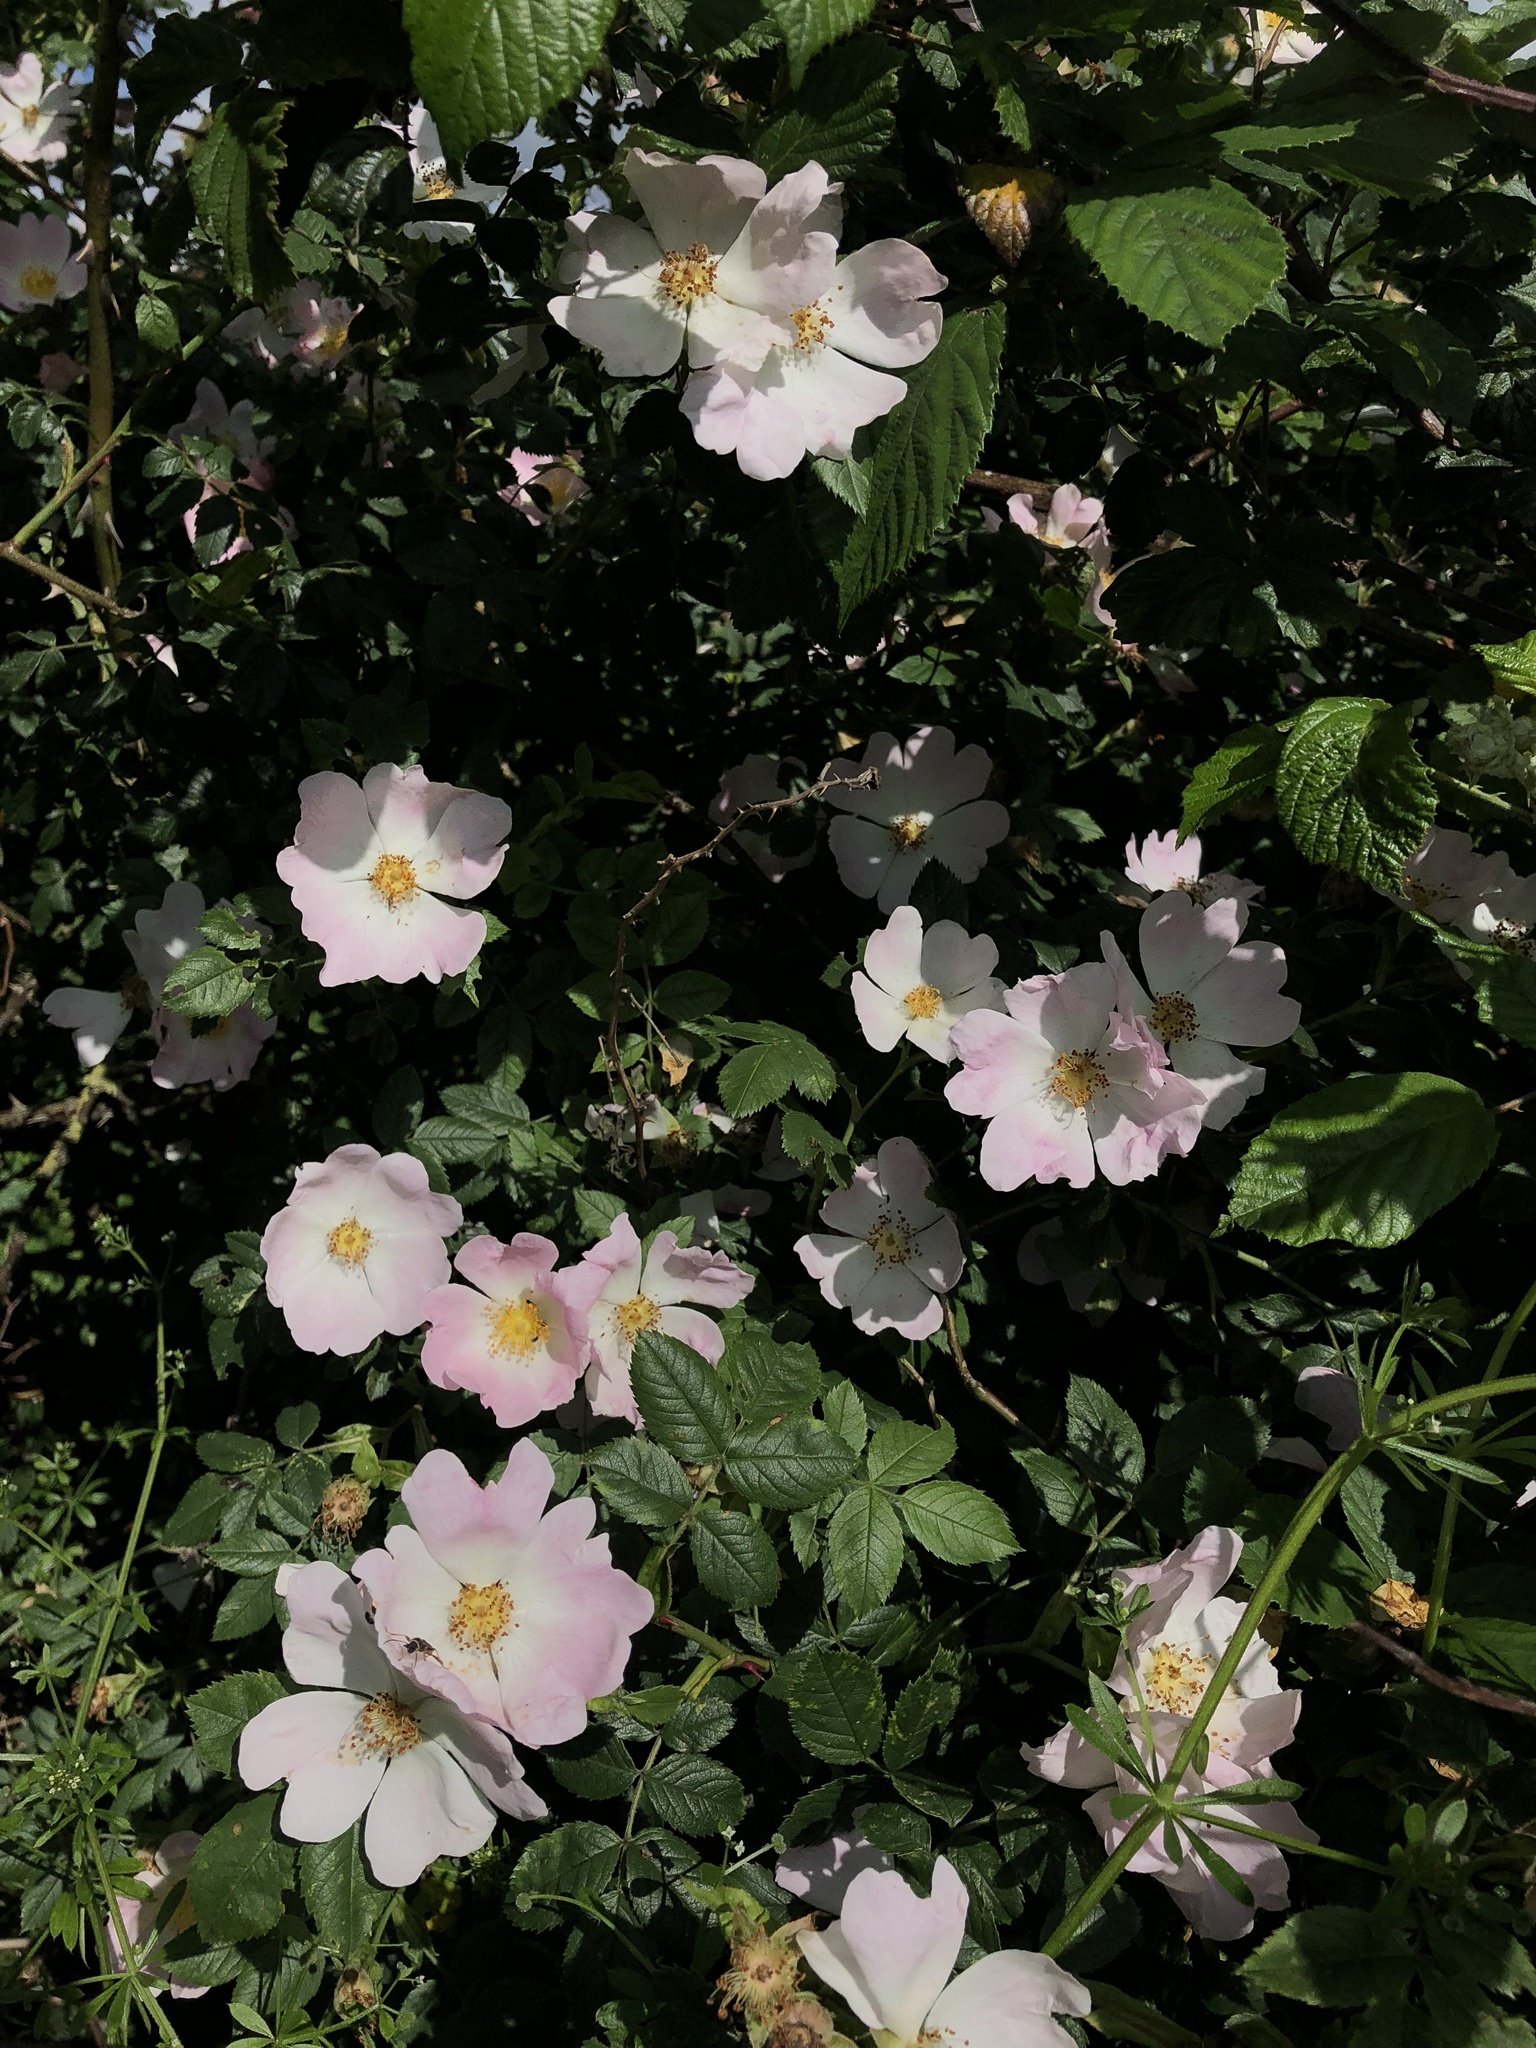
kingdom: Plantae
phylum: Tracheophyta
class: Magnoliopsida
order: Rosales
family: Rosaceae
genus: Rosa
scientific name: Rosa canina
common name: Dog rose
